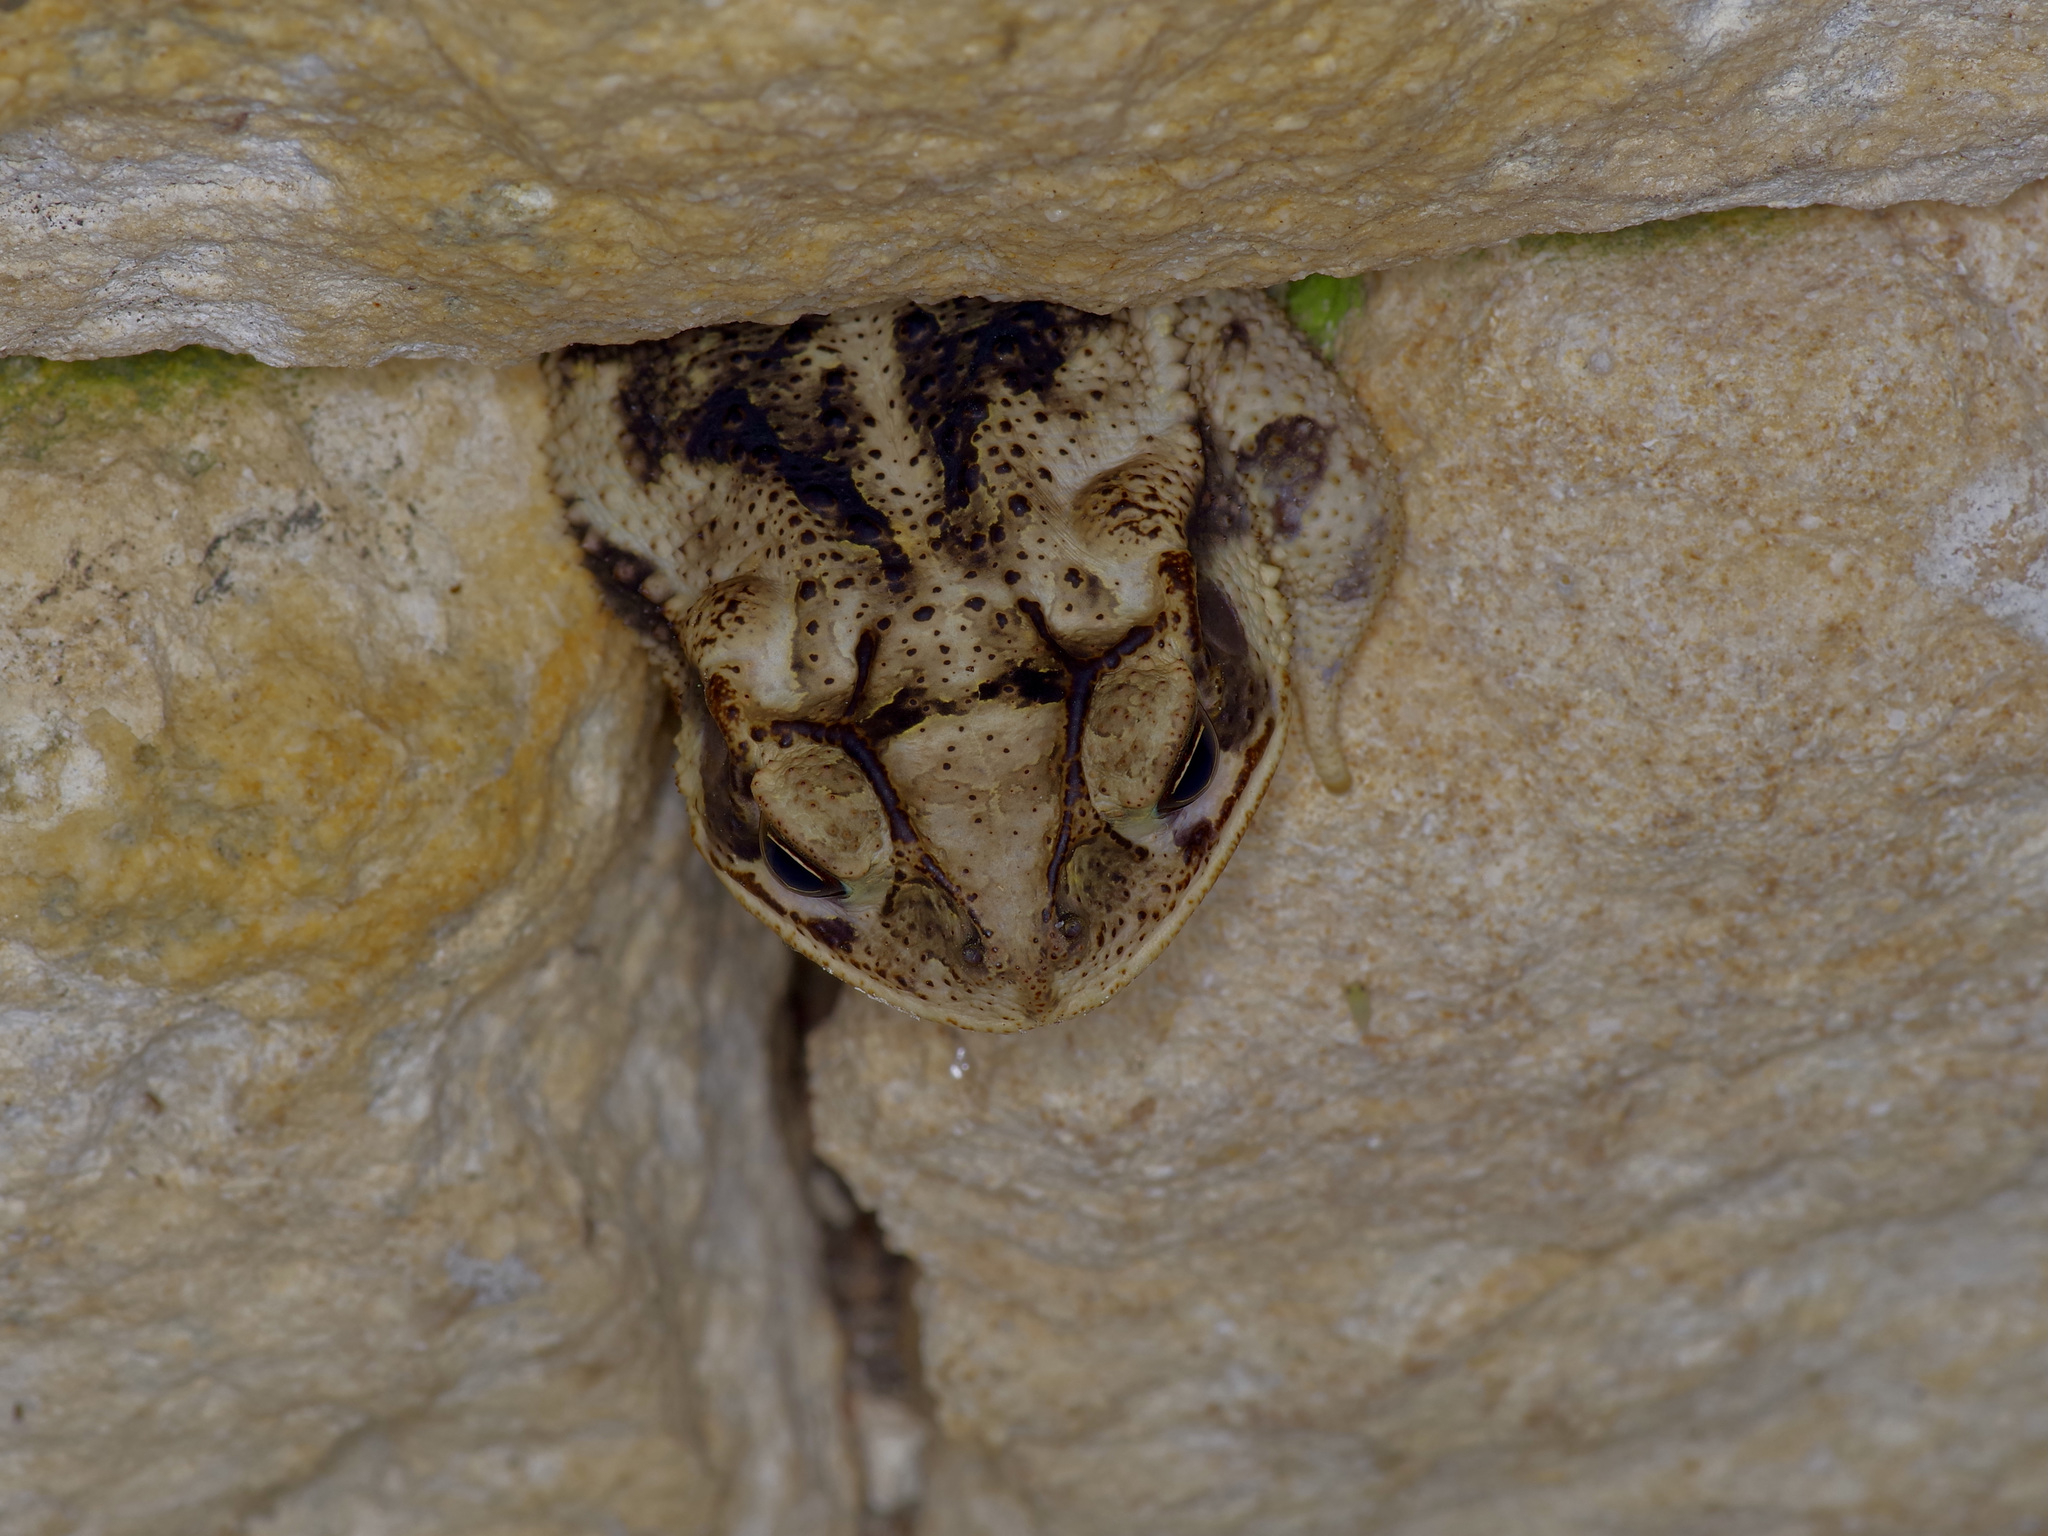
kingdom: Animalia
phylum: Chordata
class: Amphibia
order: Anura
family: Bufonidae
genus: Incilius
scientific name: Incilius nebulifer
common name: Gulf coast toad
